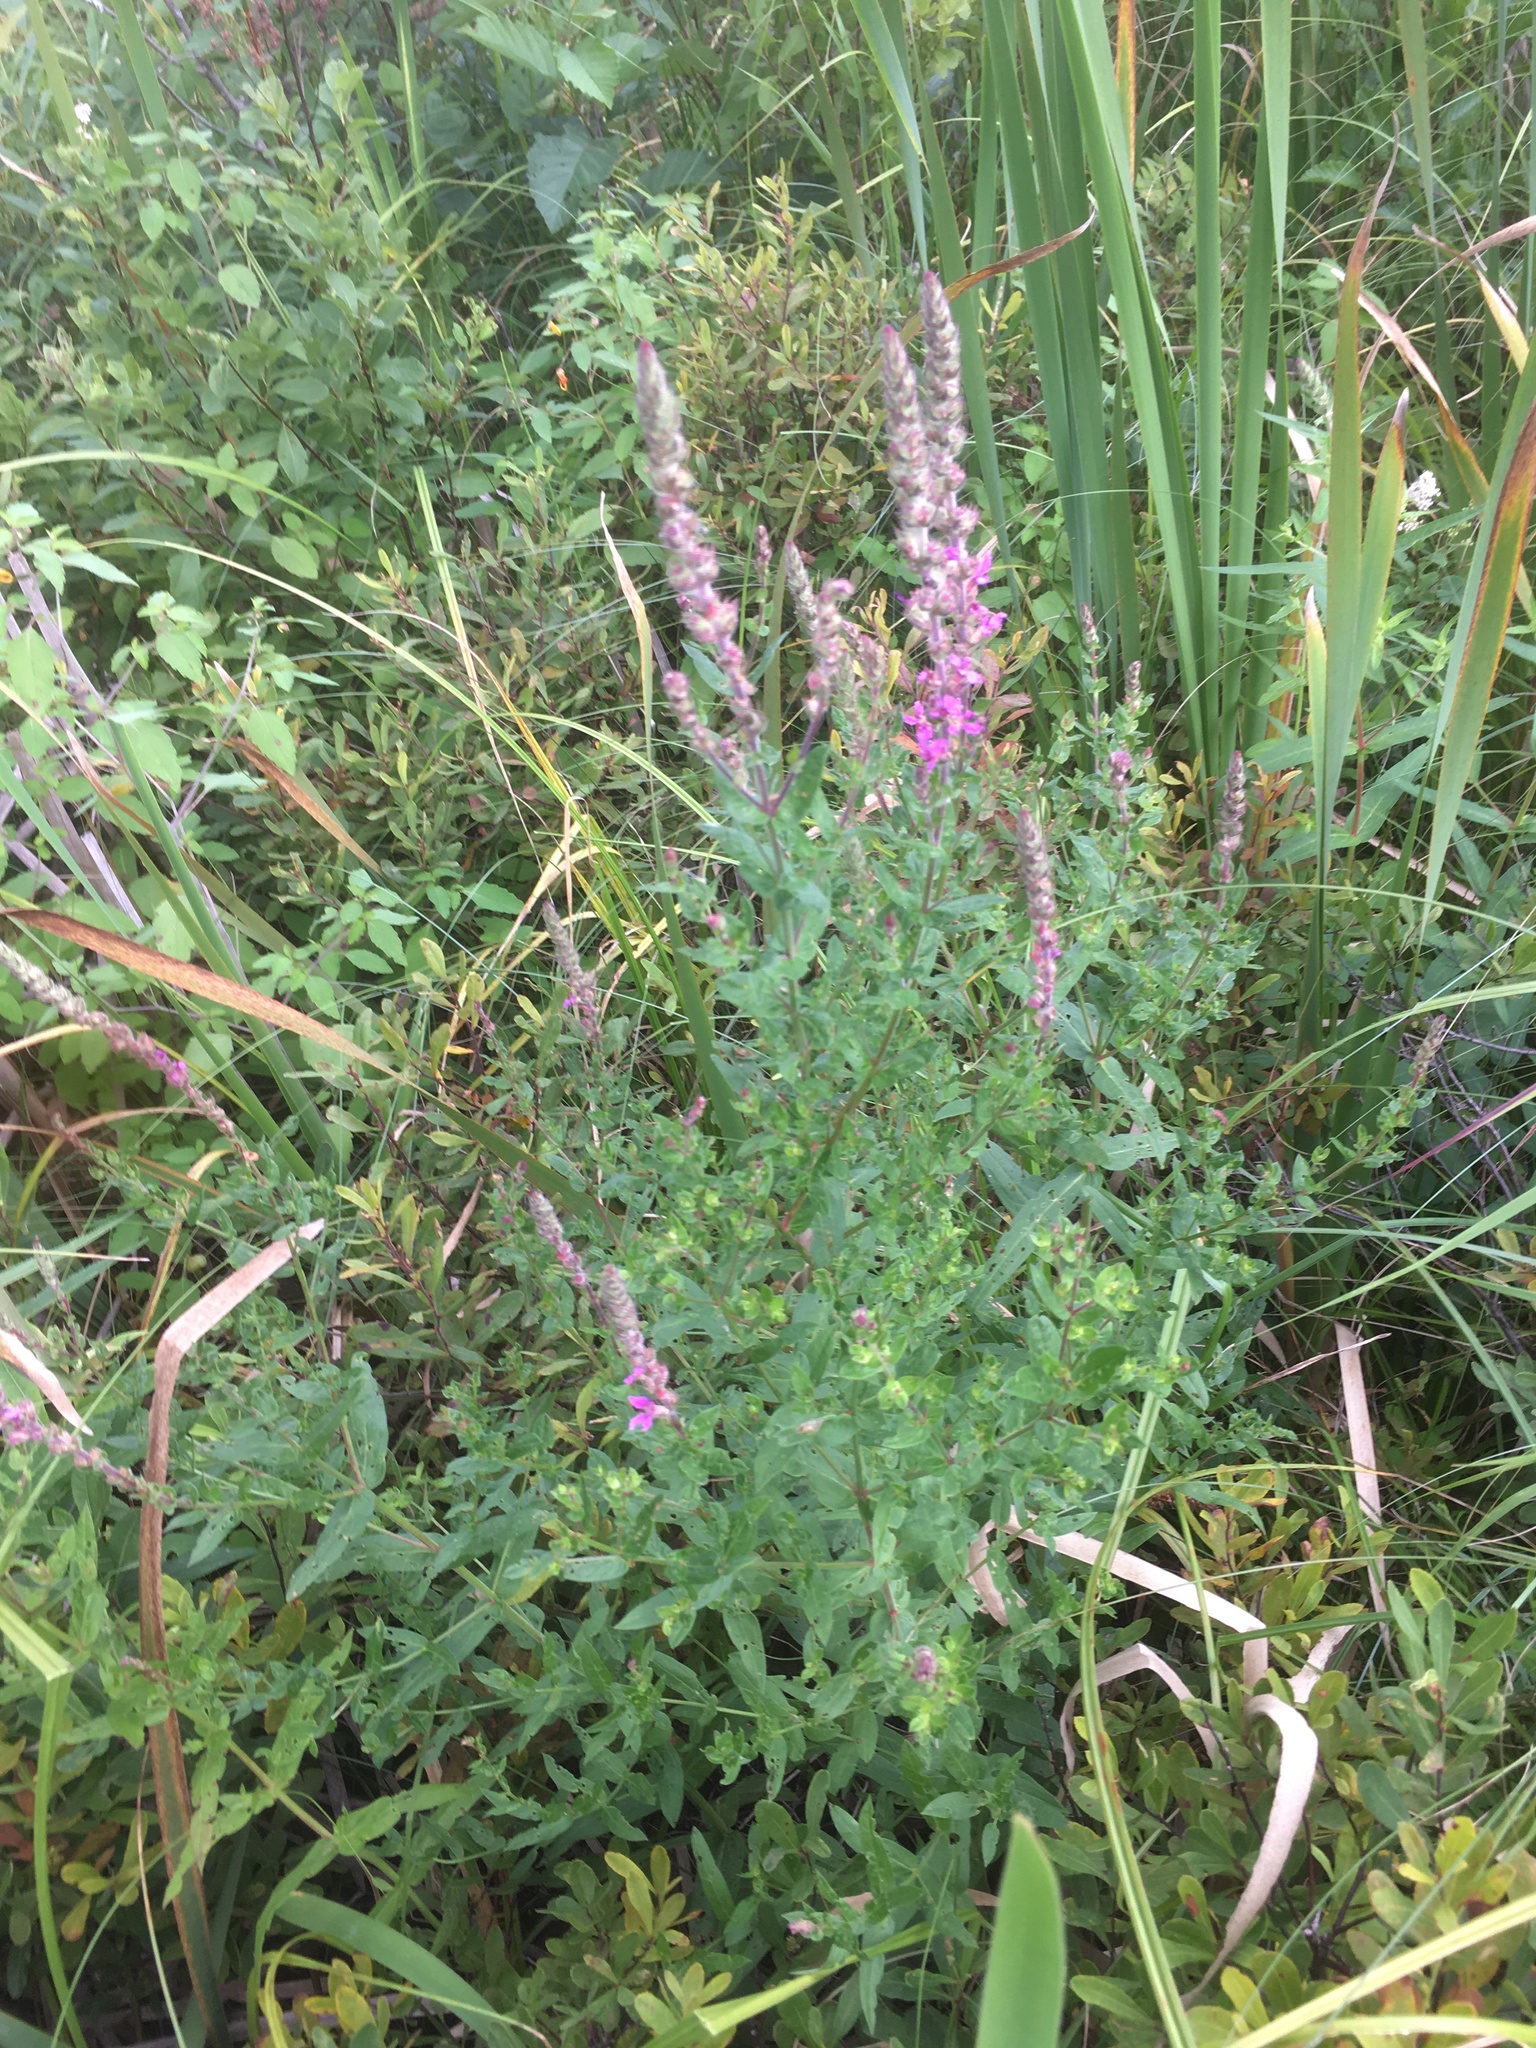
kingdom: Plantae
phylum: Tracheophyta
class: Magnoliopsida
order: Myrtales
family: Lythraceae
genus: Lythrum
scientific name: Lythrum salicaria
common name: Purple loosestrife
